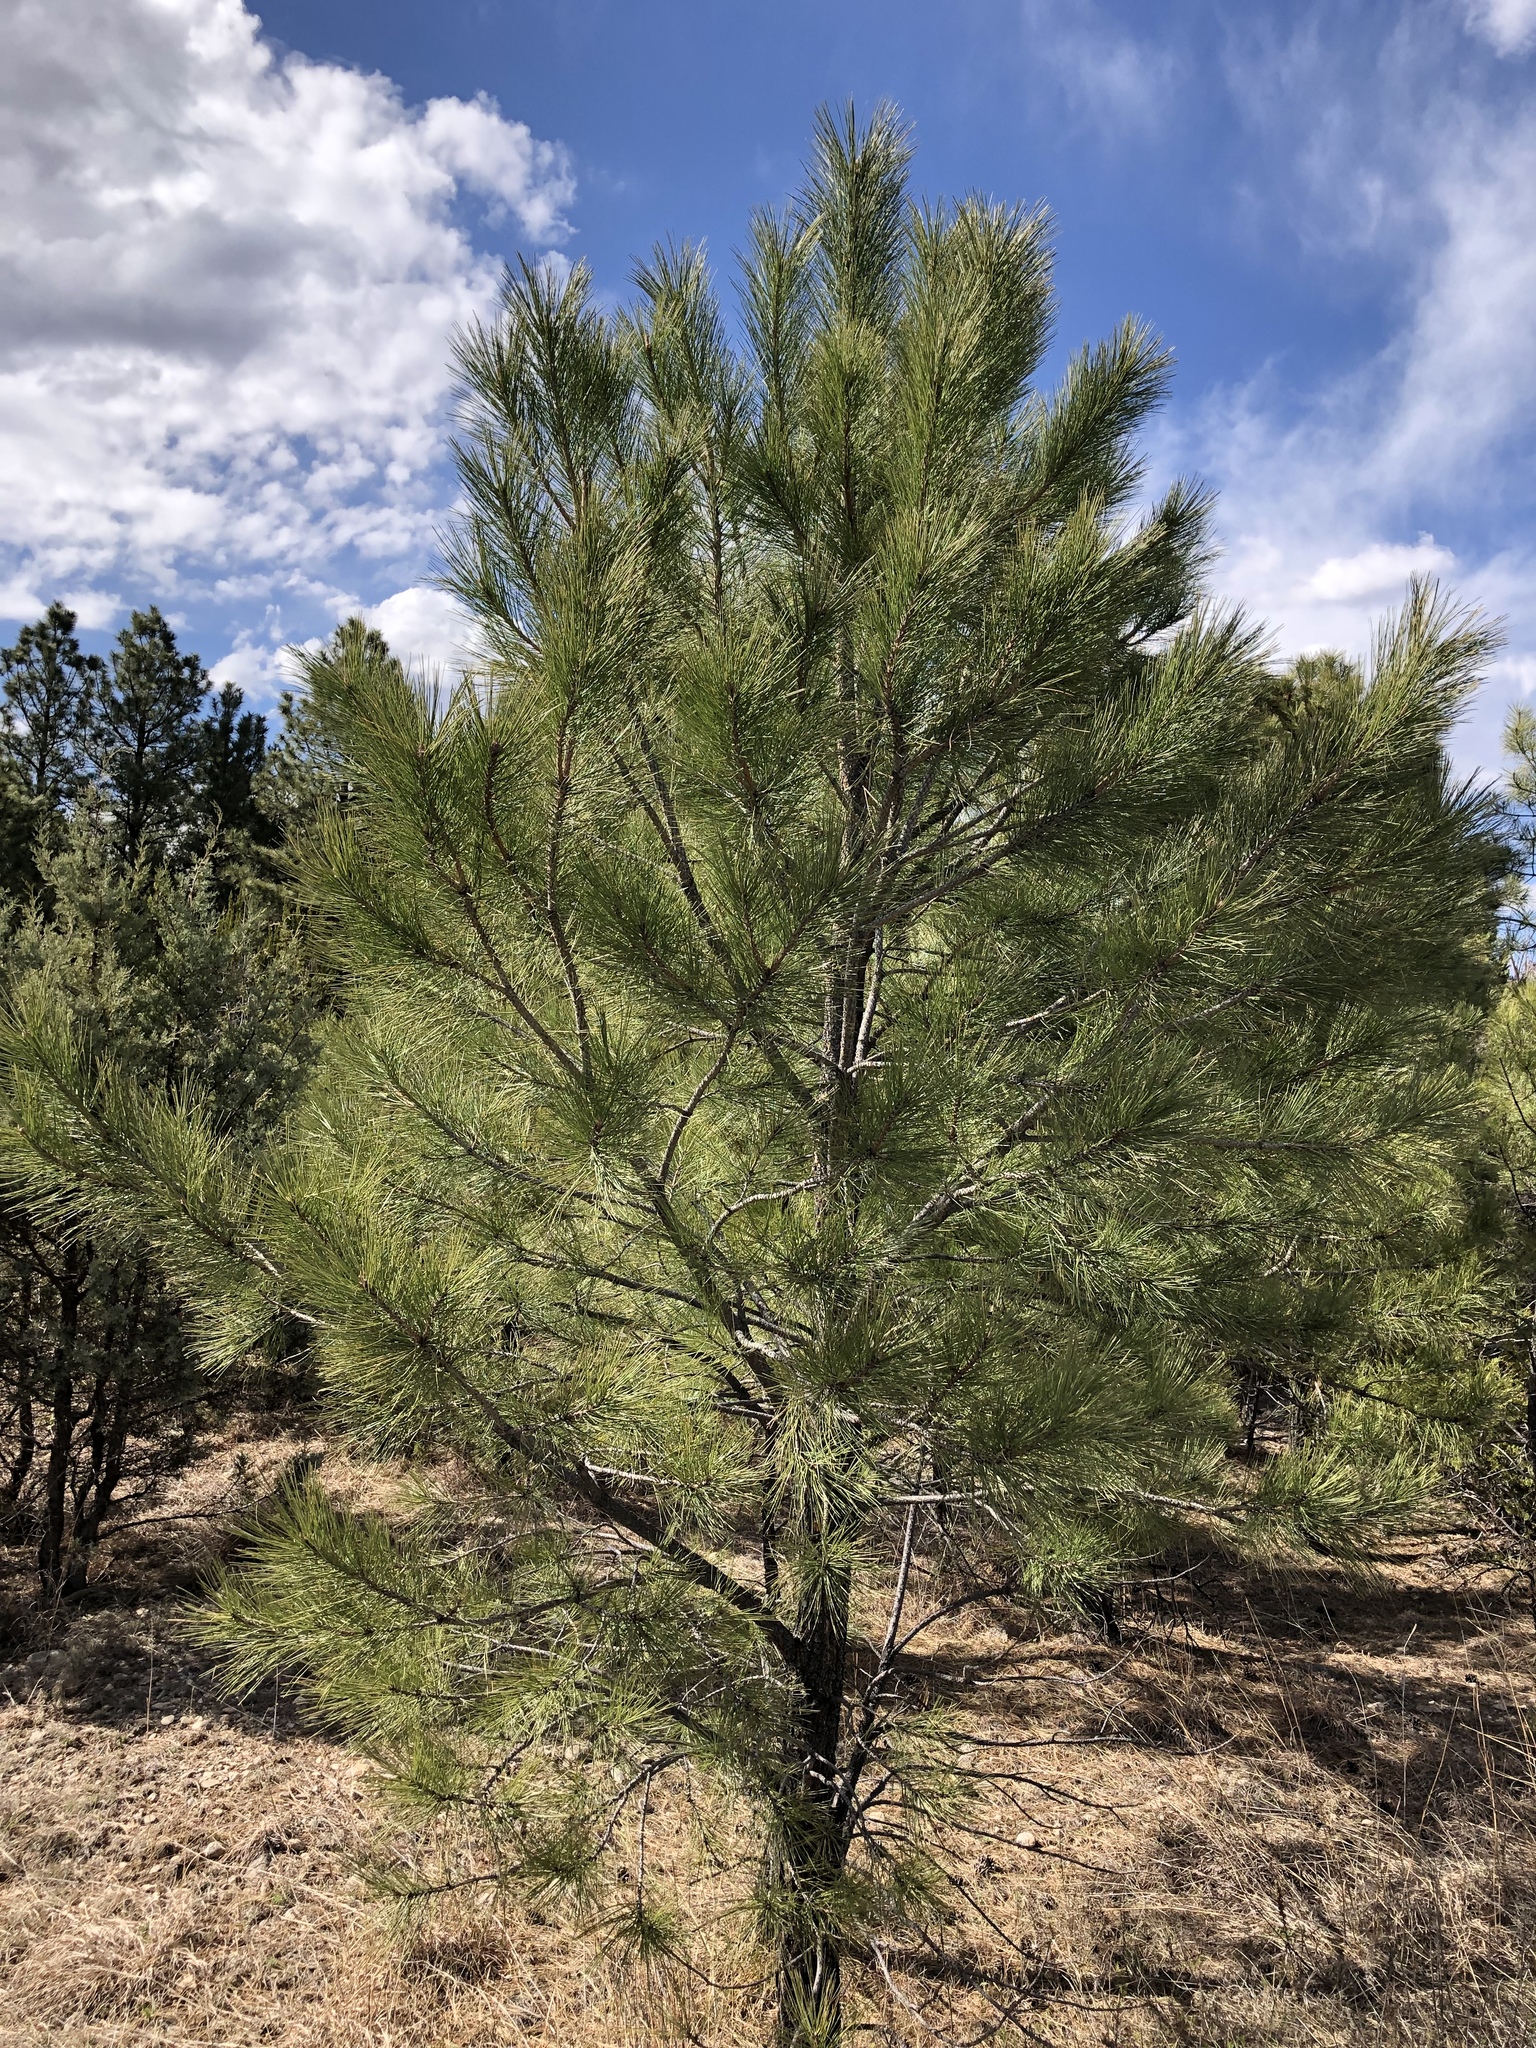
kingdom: Plantae
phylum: Tracheophyta
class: Pinopsida
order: Pinales
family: Pinaceae
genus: Pinus
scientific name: Pinus ponderosa
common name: Western yellow-pine
